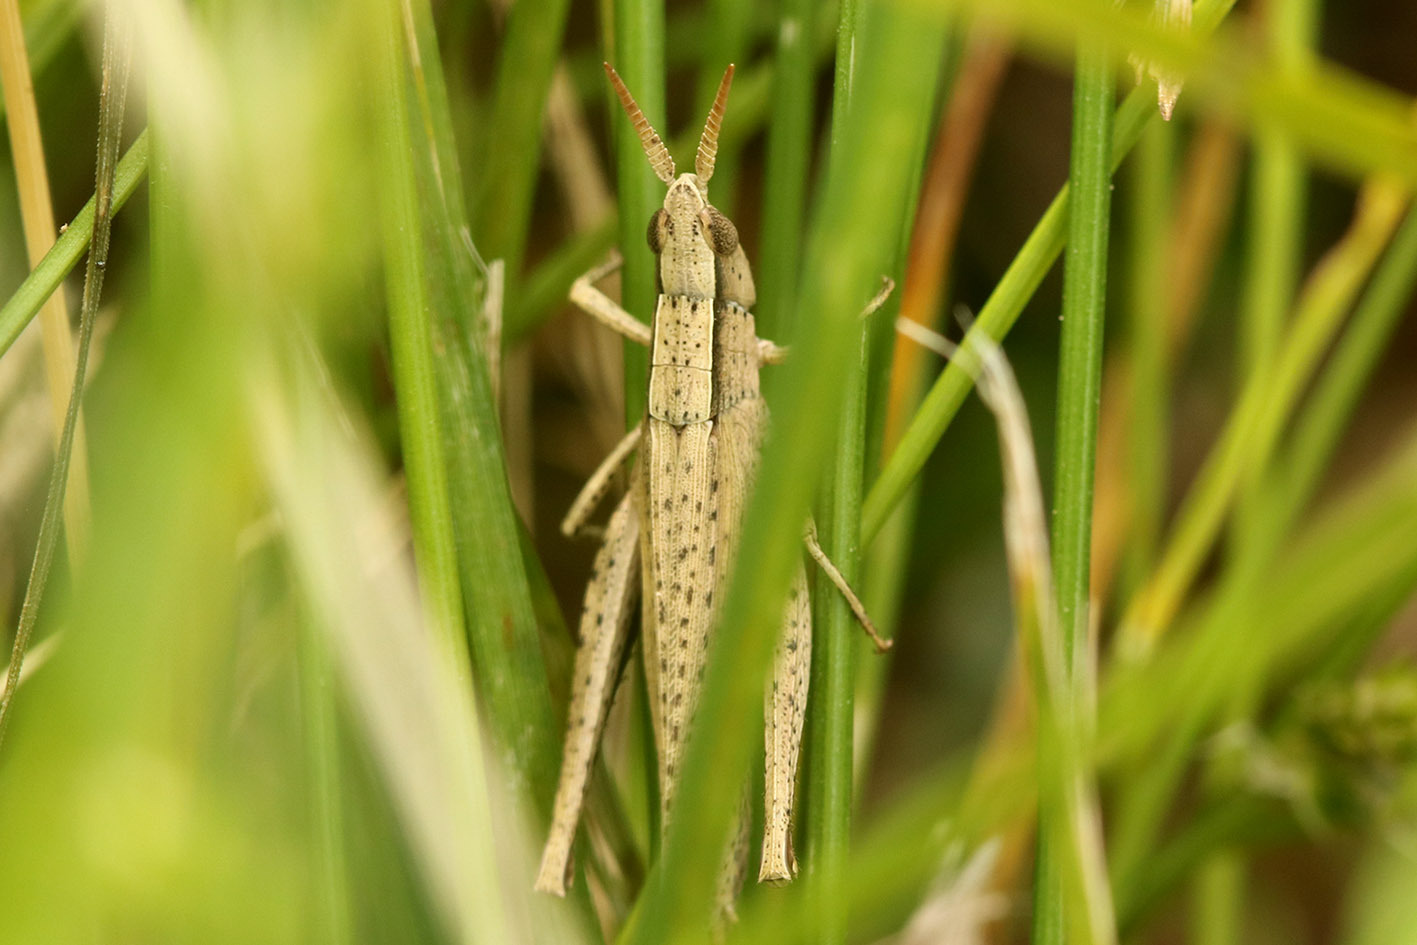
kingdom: Animalia
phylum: Arthropoda
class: Insecta
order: Orthoptera
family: Acrididae
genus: Laplatacris
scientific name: Laplatacris dispar
